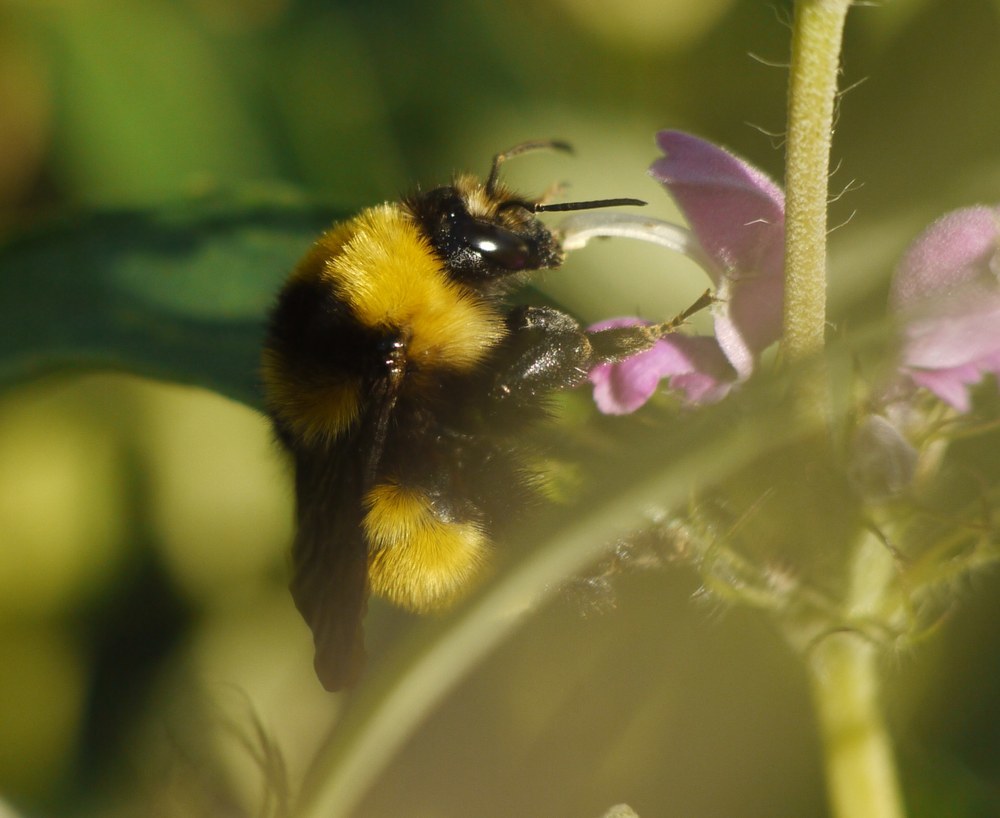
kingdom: Animalia
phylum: Arthropoda
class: Insecta
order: Hymenoptera
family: Apidae
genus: Bombus
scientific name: Bombus zonatus
